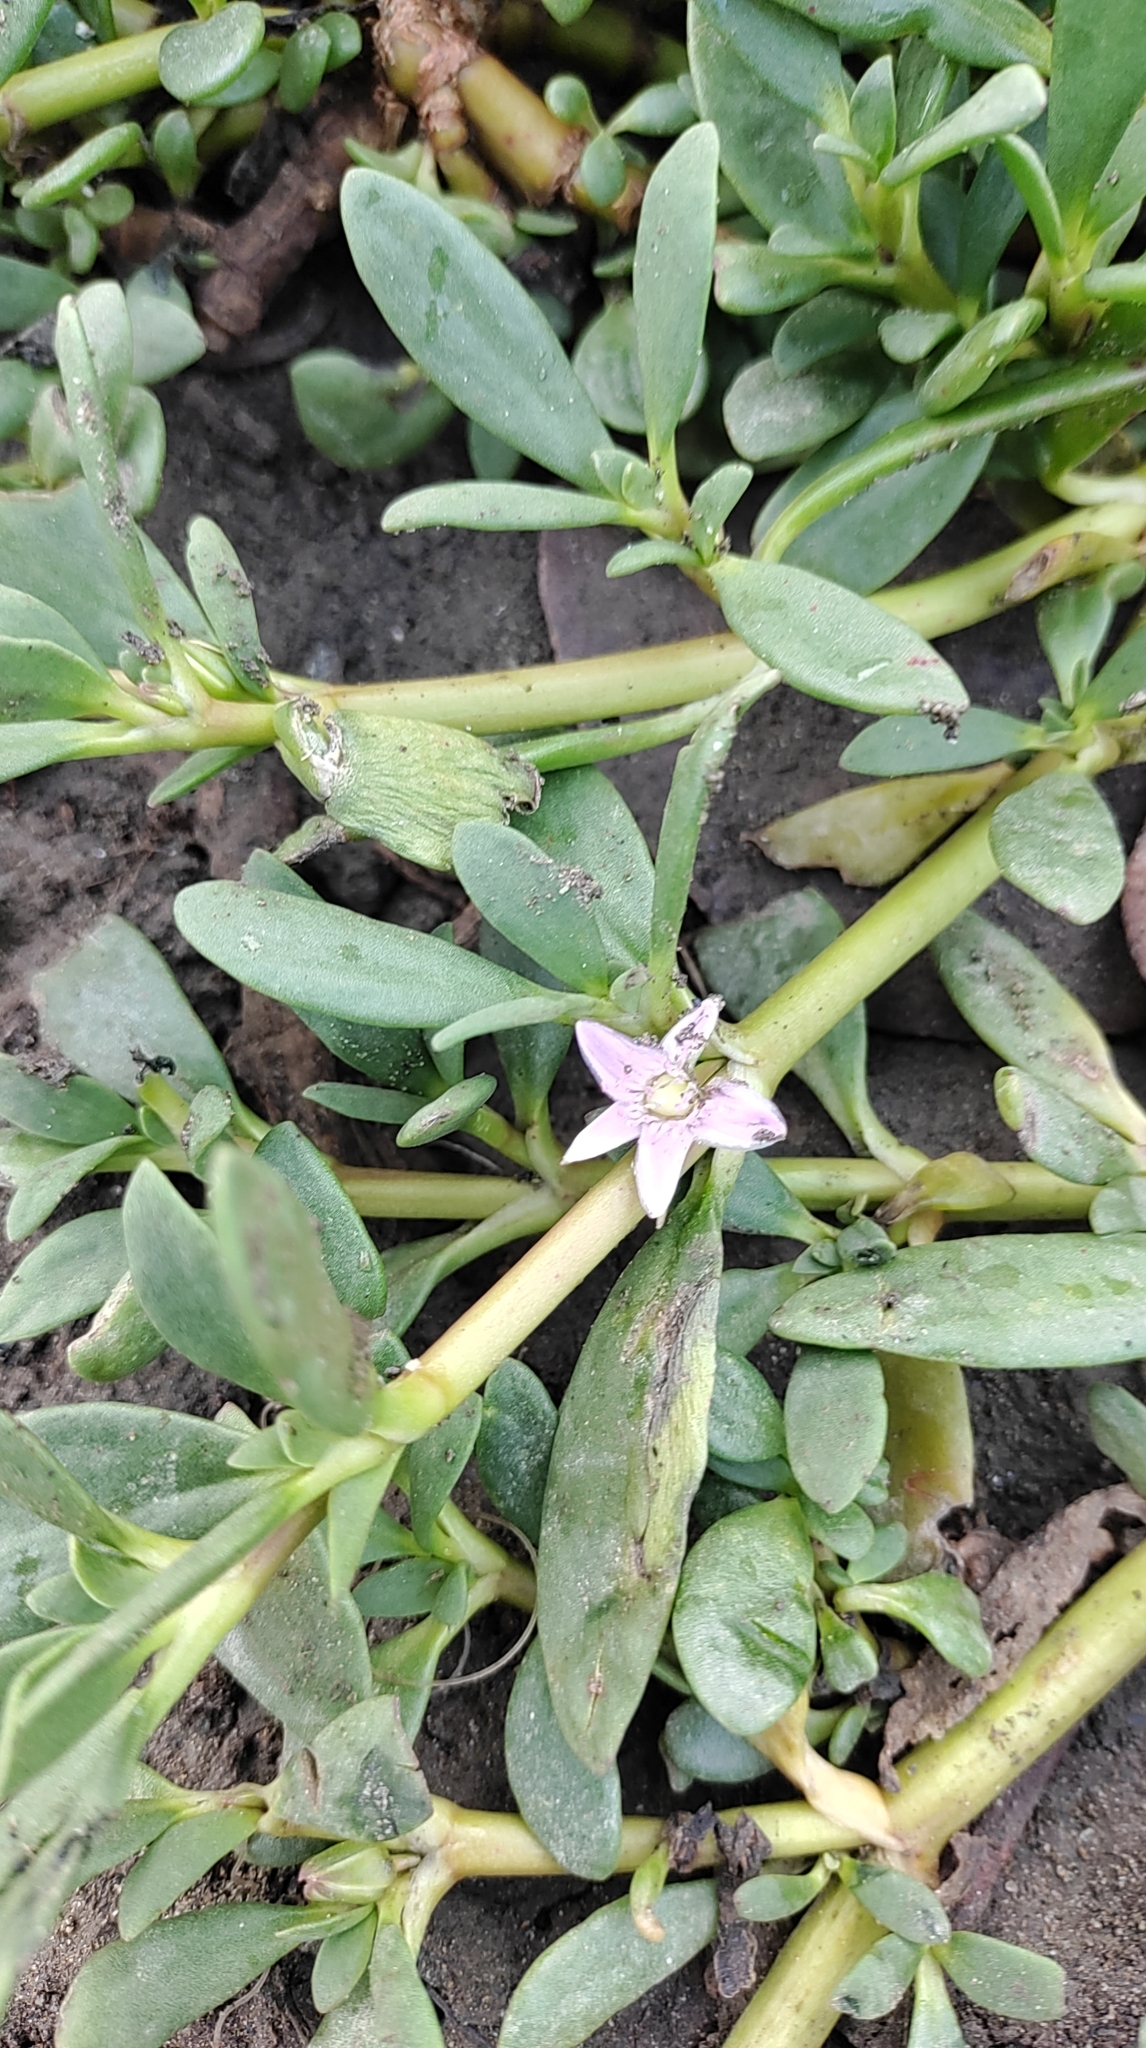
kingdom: Plantae
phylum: Tracheophyta
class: Magnoliopsida
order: Caryophyllales
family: Aizoaceae
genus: Sesuvium
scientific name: Sesuvium portulacastrum
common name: Sea-purslane
